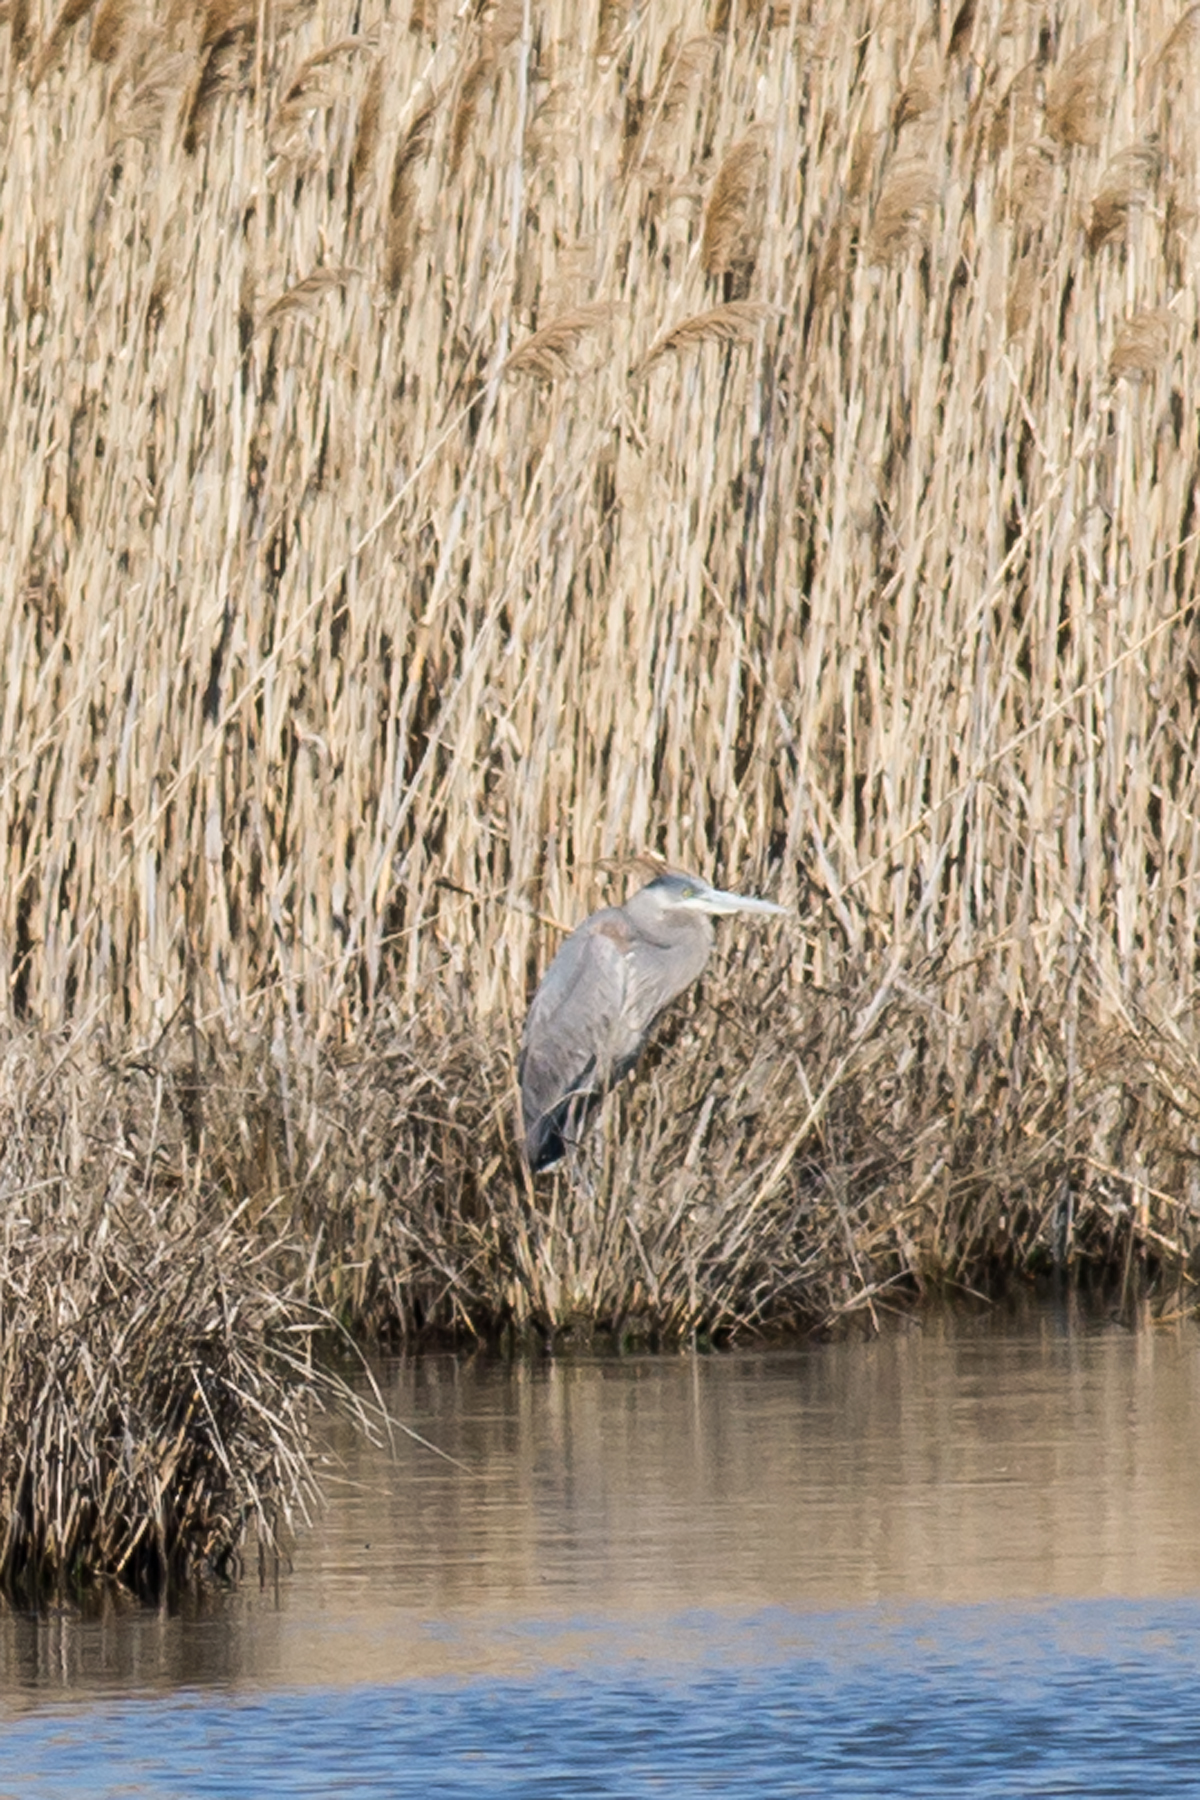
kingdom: Animalia
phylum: Chordata
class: Aves
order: Pelecaniformes
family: Ardeidae
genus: Ardea
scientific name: Ardea herodias
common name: Great blue heron
